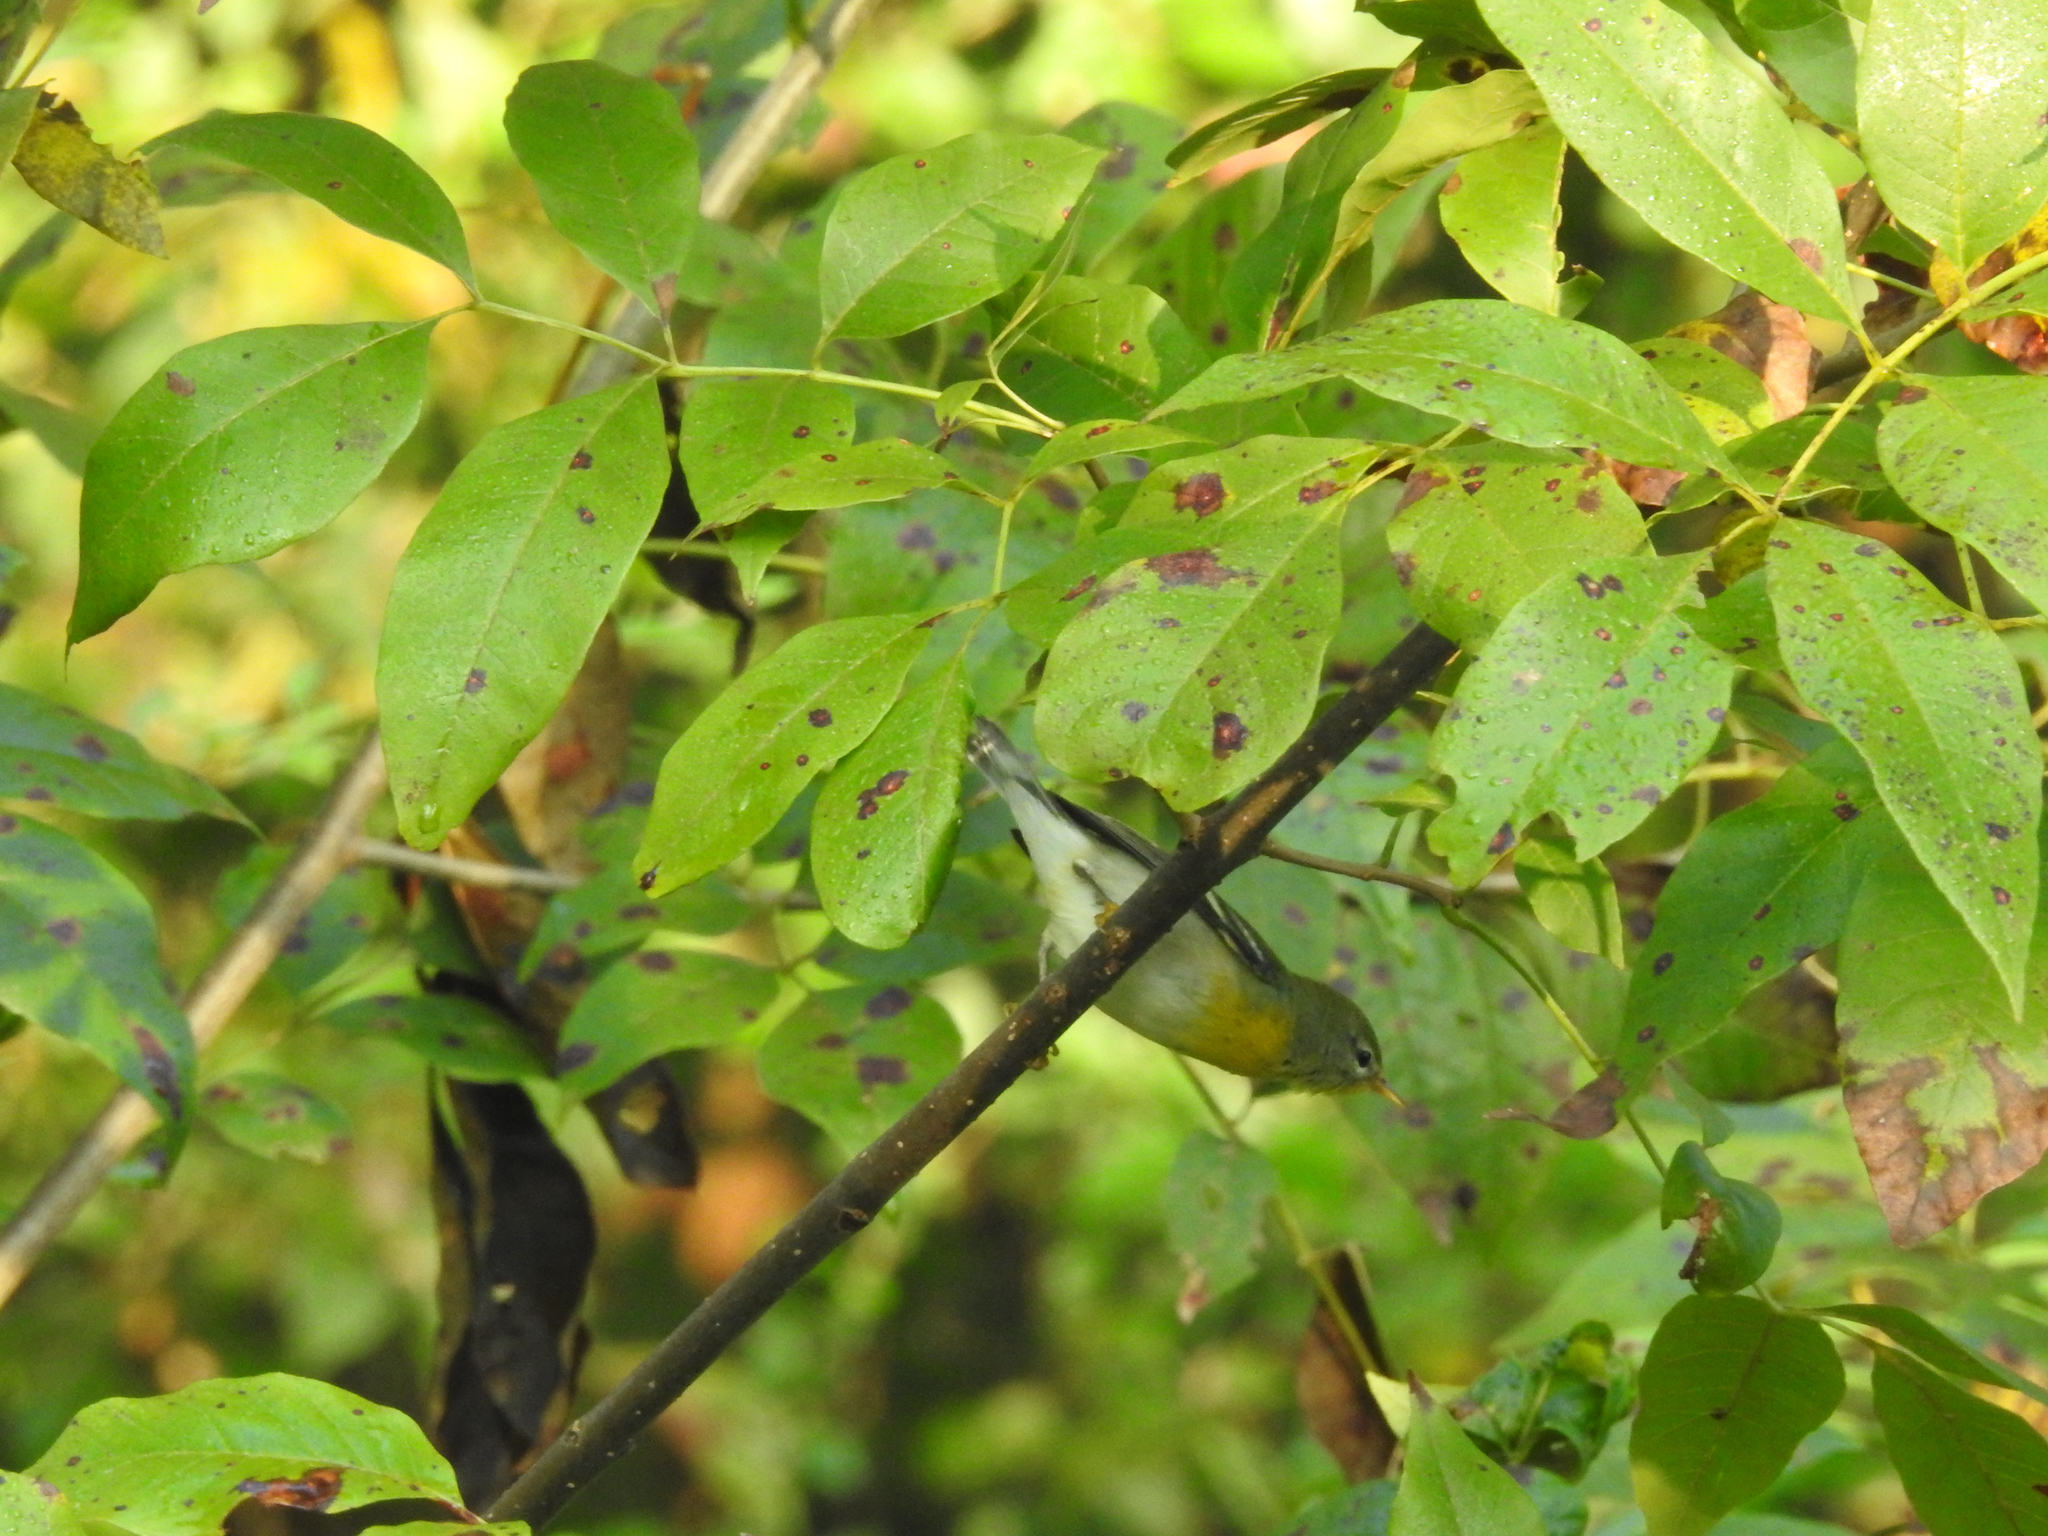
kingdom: Animalia
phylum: Chordata
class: Aves
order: Passeriformes
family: Parulidae
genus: Setophaga
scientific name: Setophaga americana
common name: Northern parula
